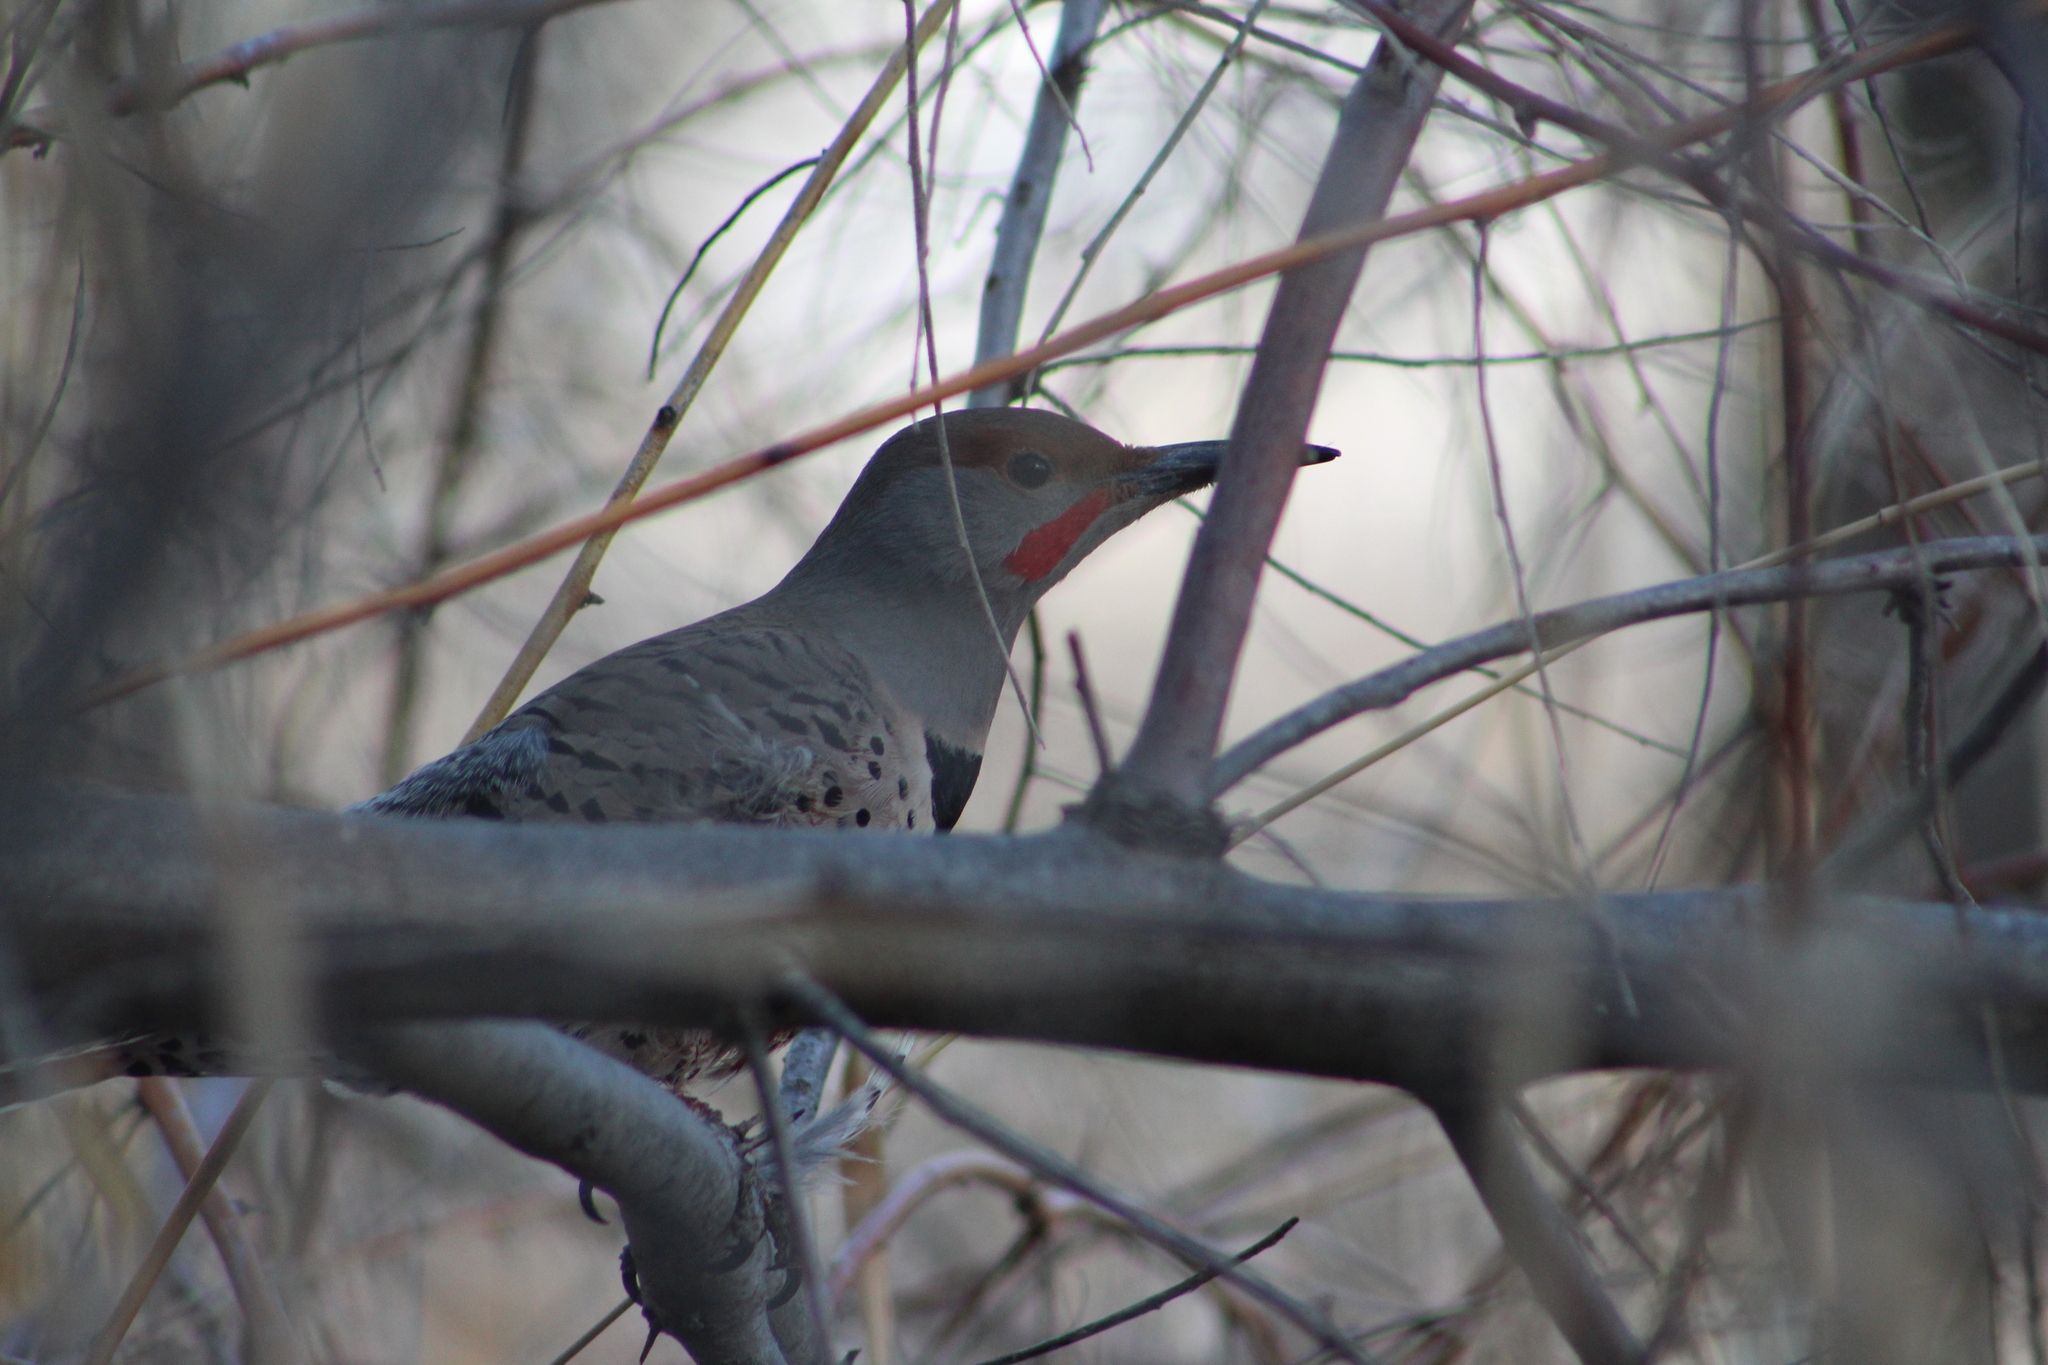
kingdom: Animalia
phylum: Chordata
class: Aves
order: Piciformes
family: Picidae
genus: Colaptes
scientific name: Colaptes auratus
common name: Northern flicker
